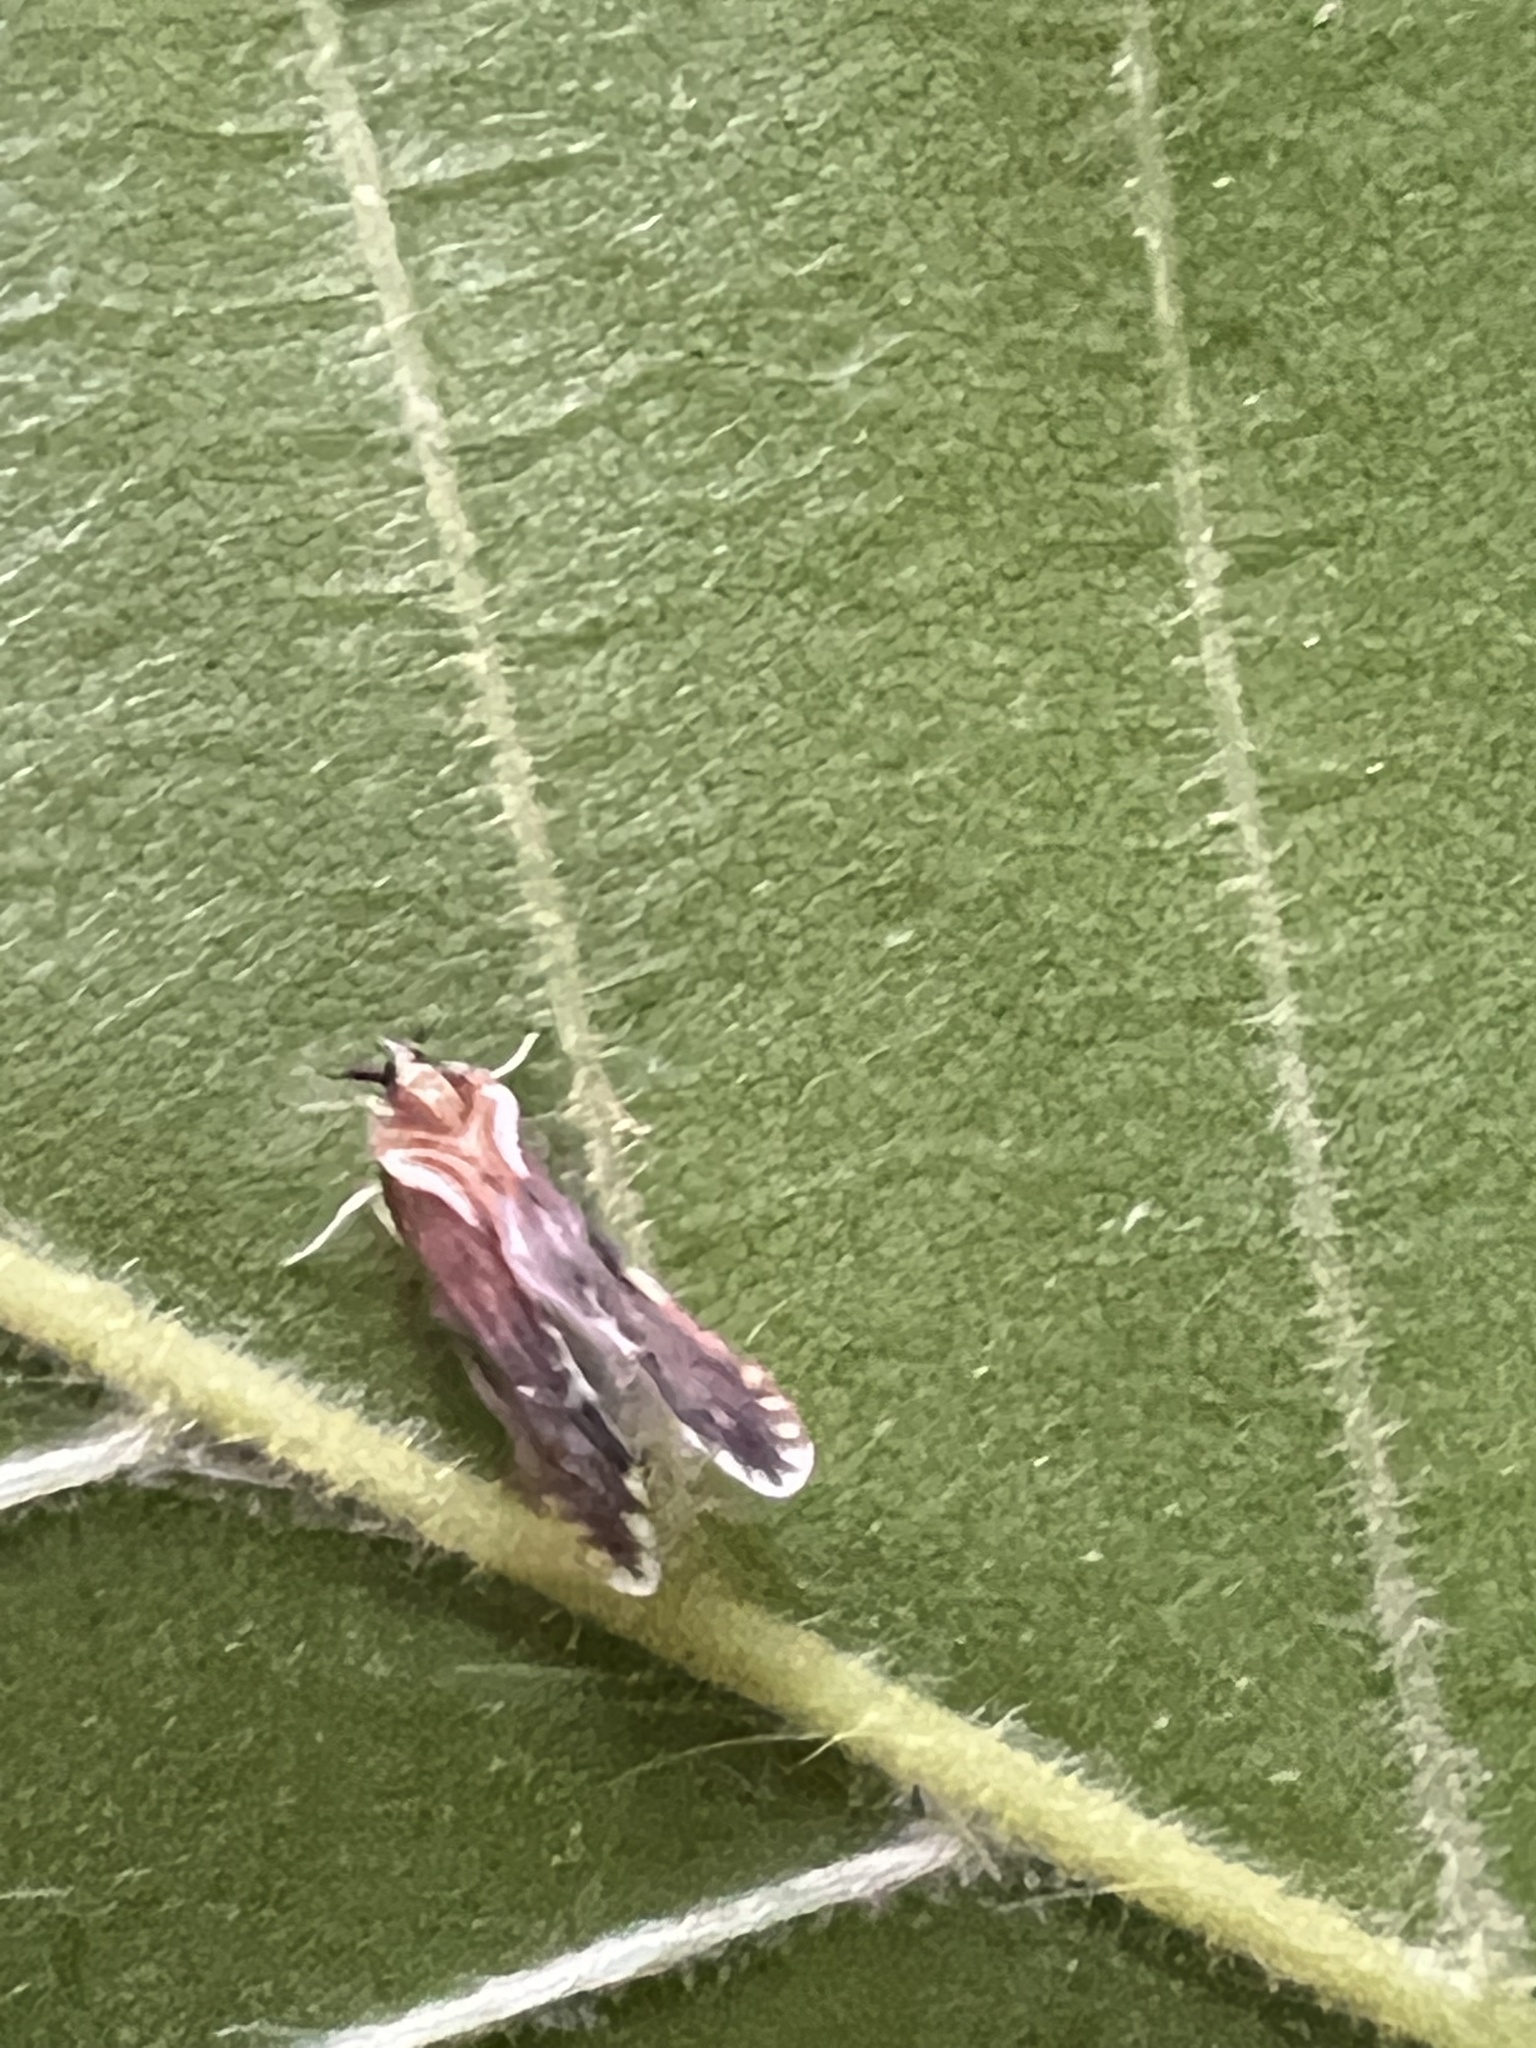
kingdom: Animalia
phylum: Arthropoda
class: Insecta
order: Hemiptera
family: Derbidae
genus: Patara
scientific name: Patara vanduzei
